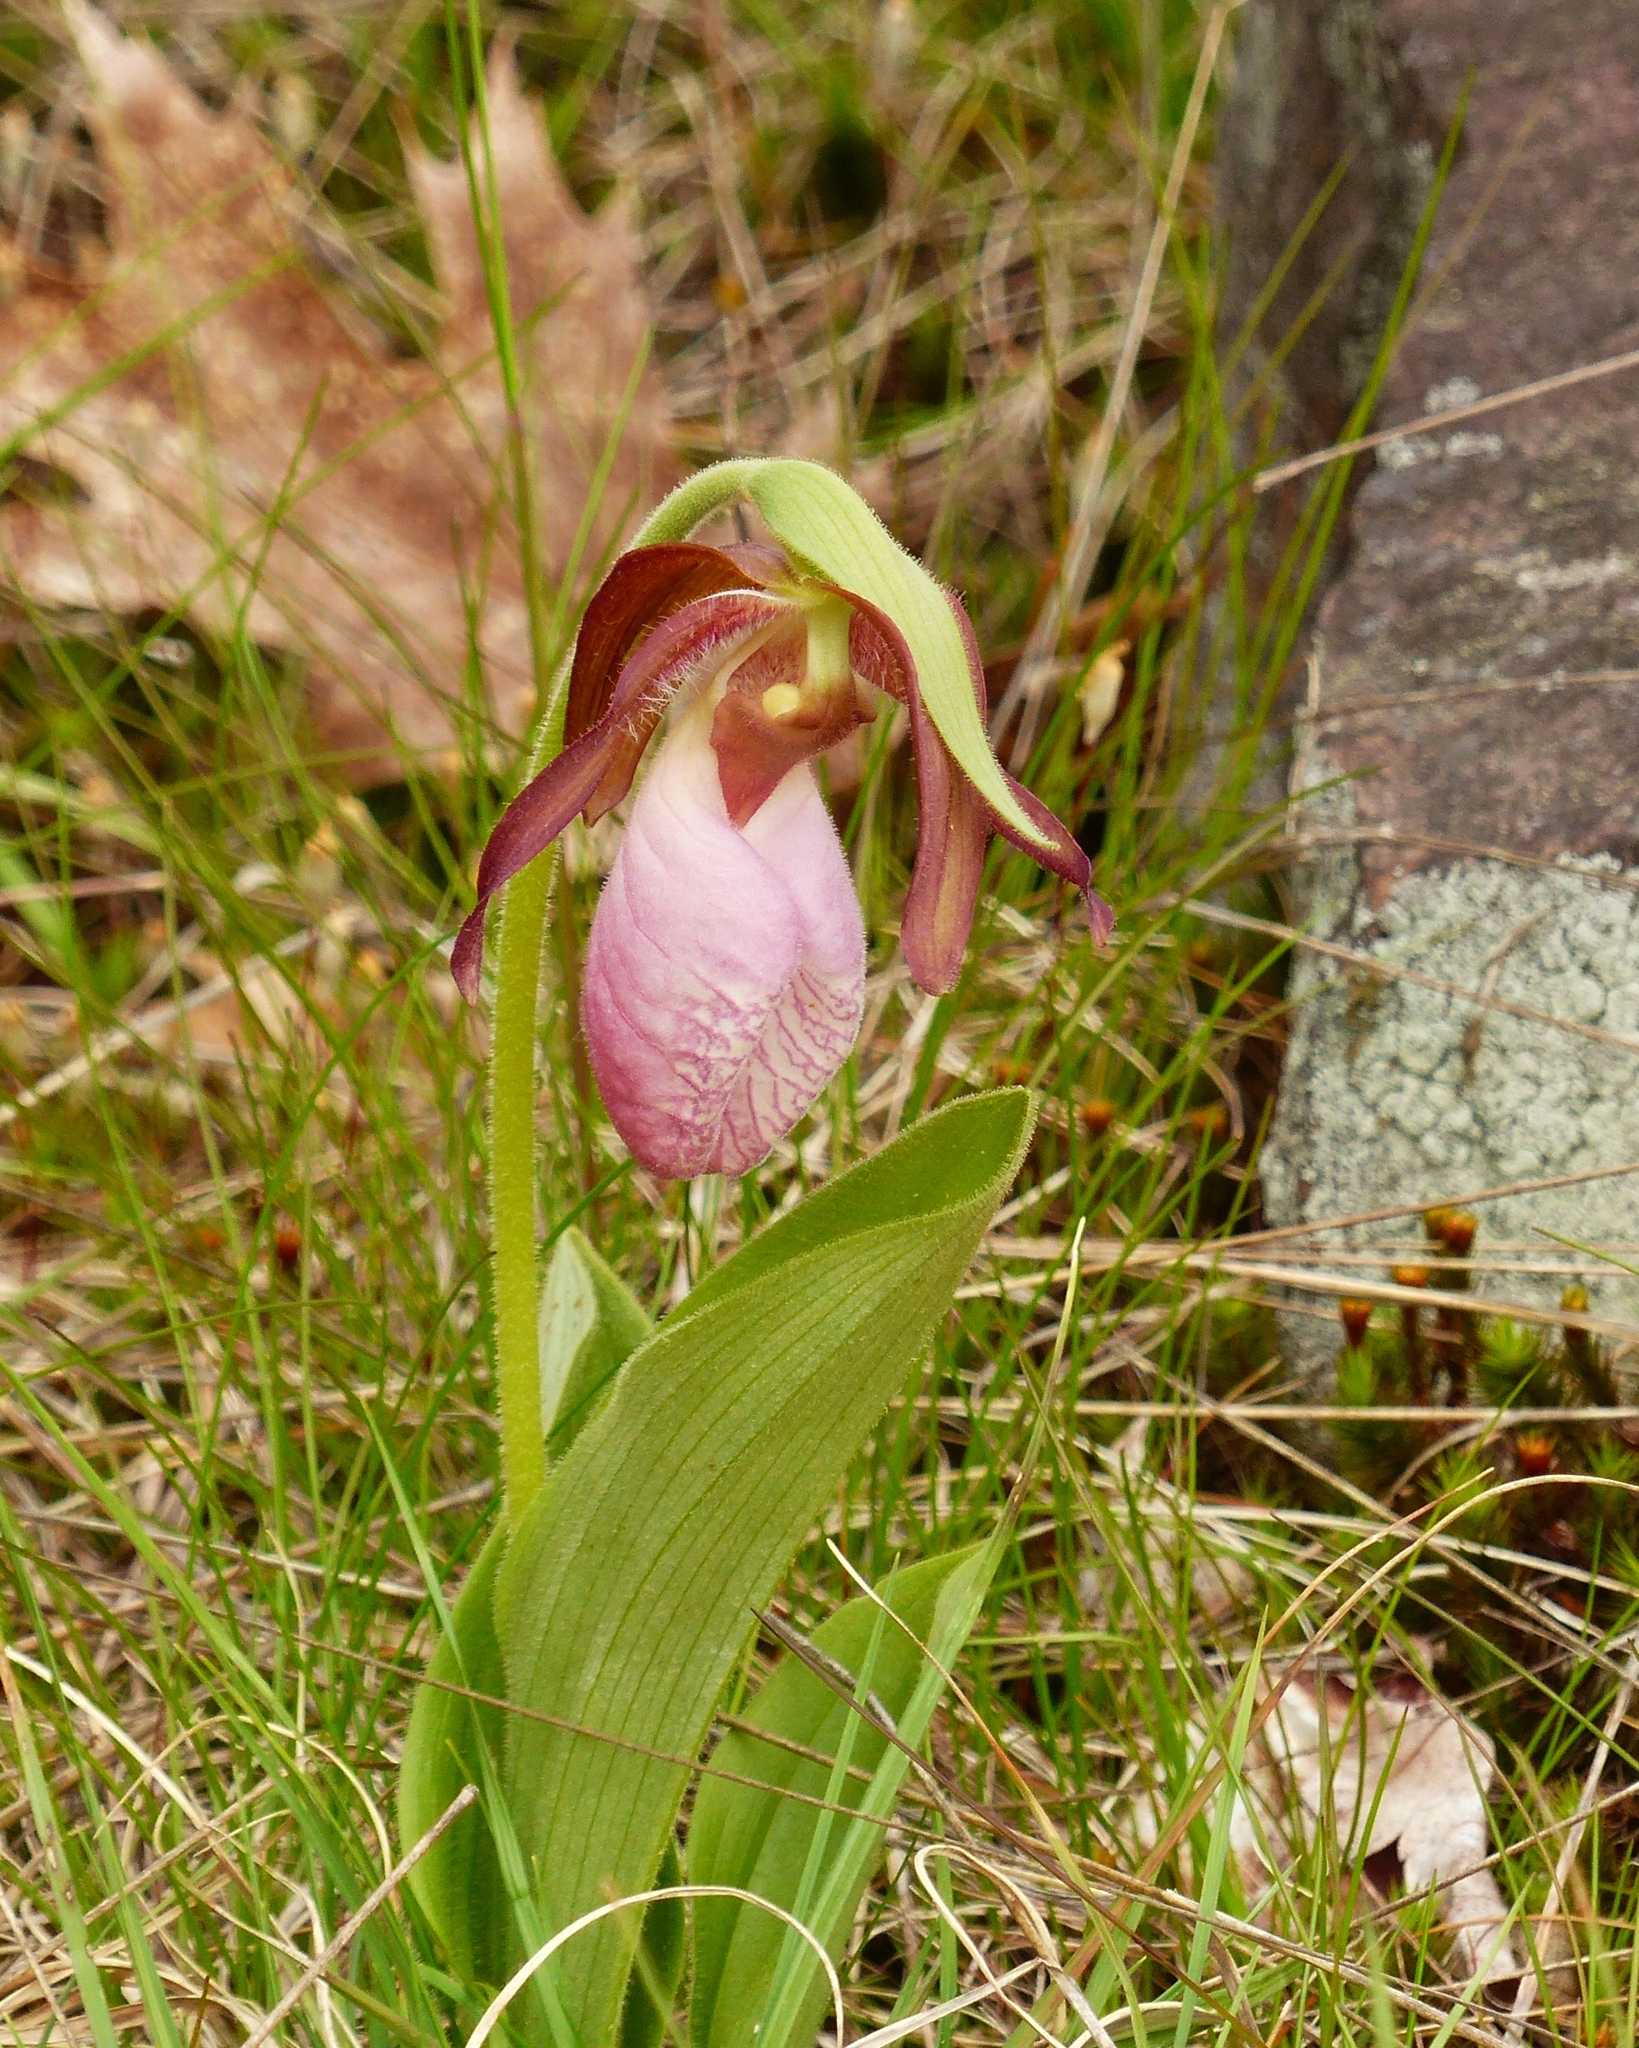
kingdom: Plantae
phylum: Tracheophyta
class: Liliopsida
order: Asparagales
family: Orchidaceae
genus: Cypripedium
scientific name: Cypripedium acaule
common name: Pink lady's-slipper
